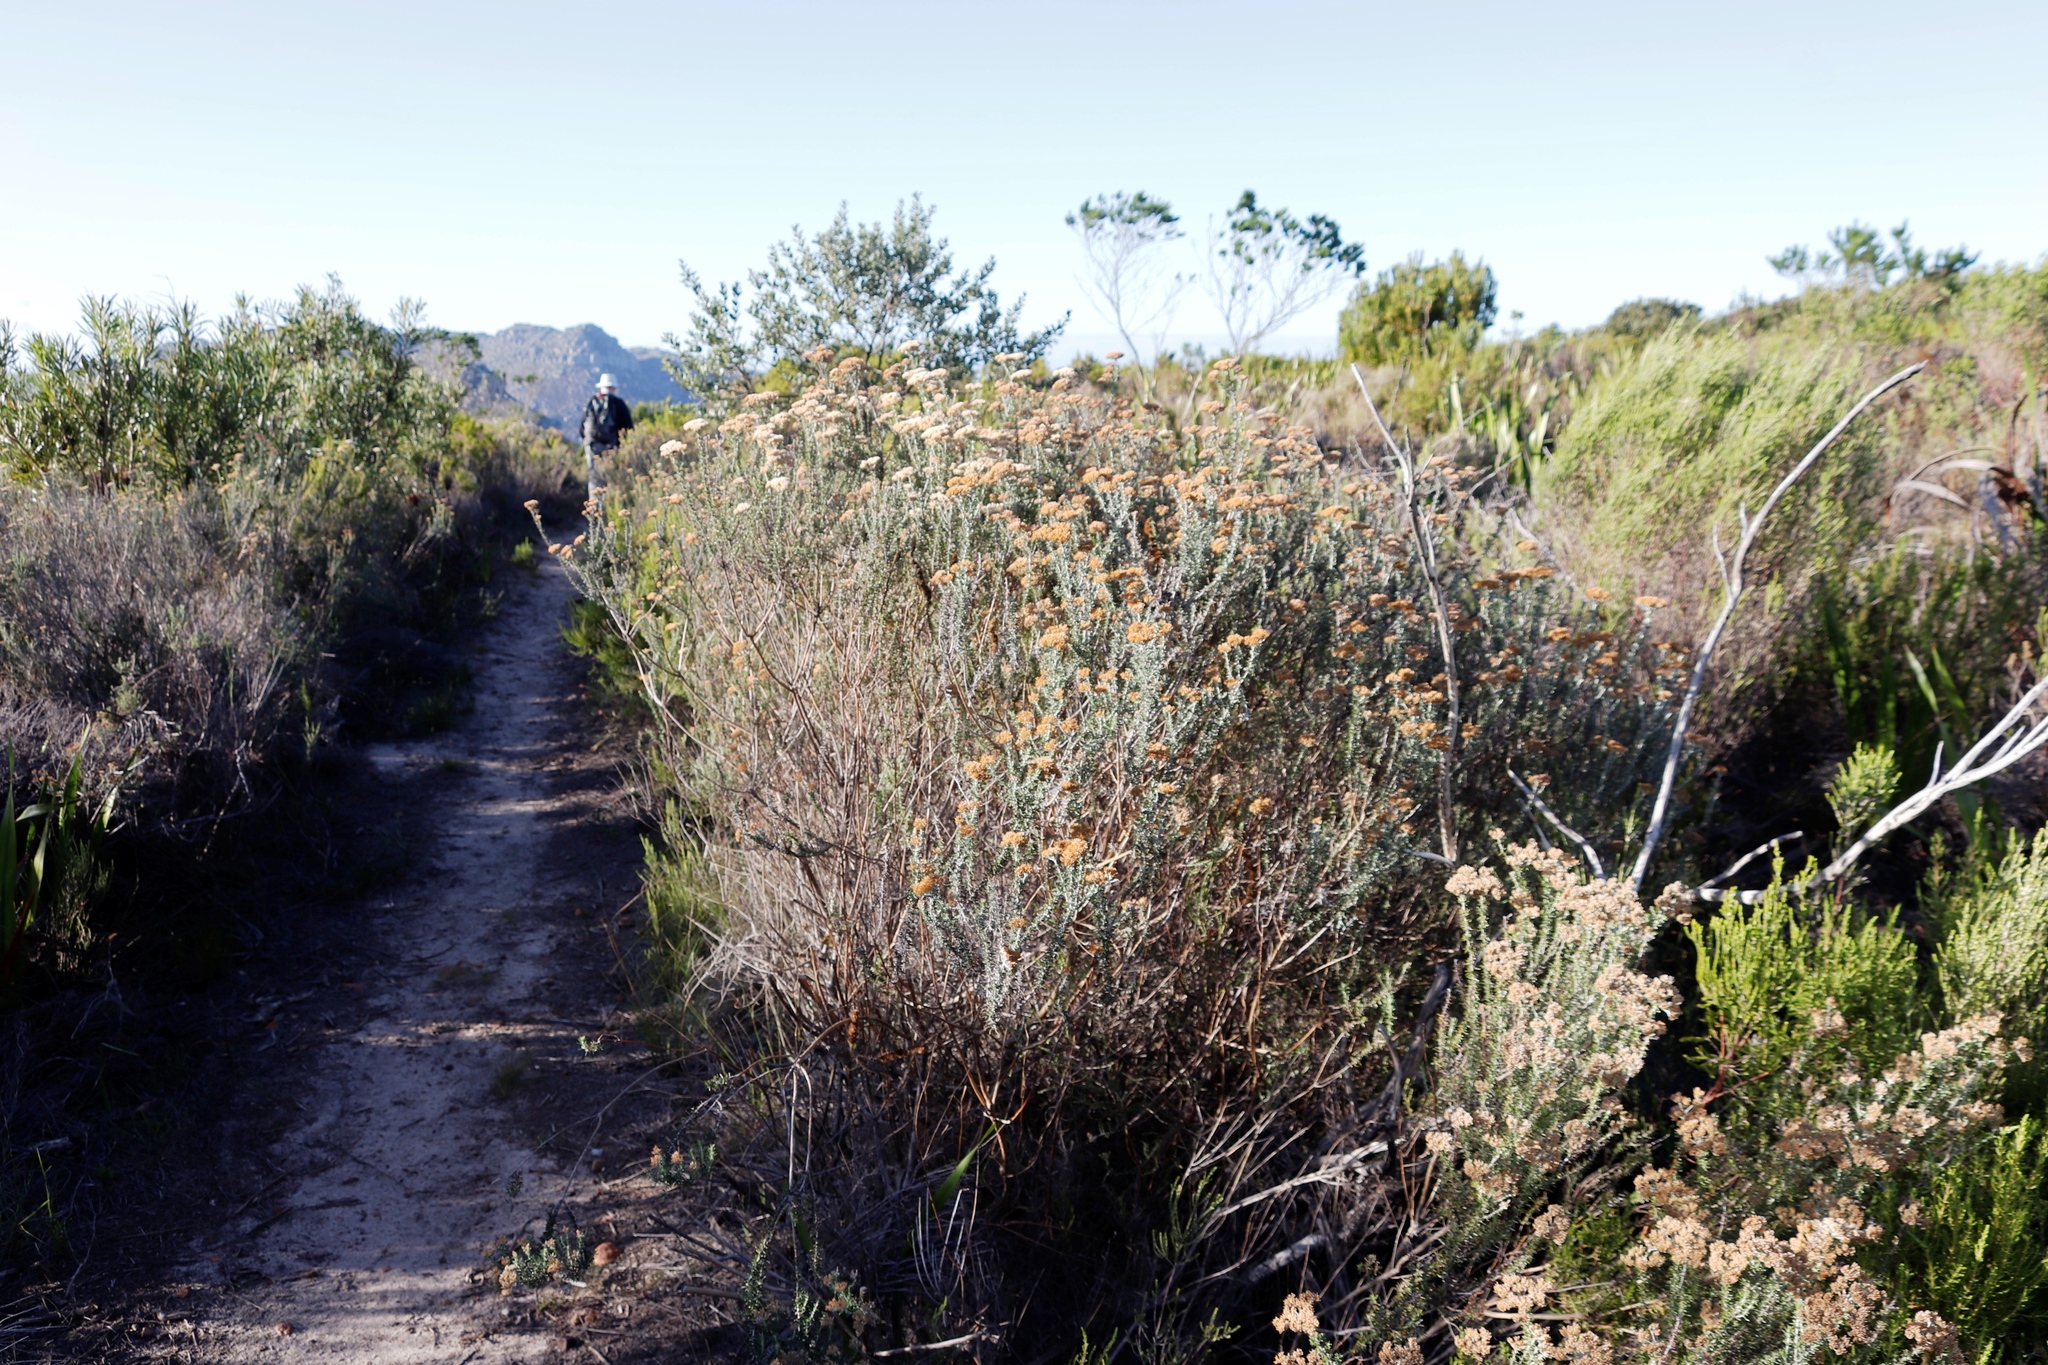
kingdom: Plantae
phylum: Tracheophyta
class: Magnoliopsida
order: Asterales
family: Asteraceae
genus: Metalasia
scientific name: Metalasia densa
